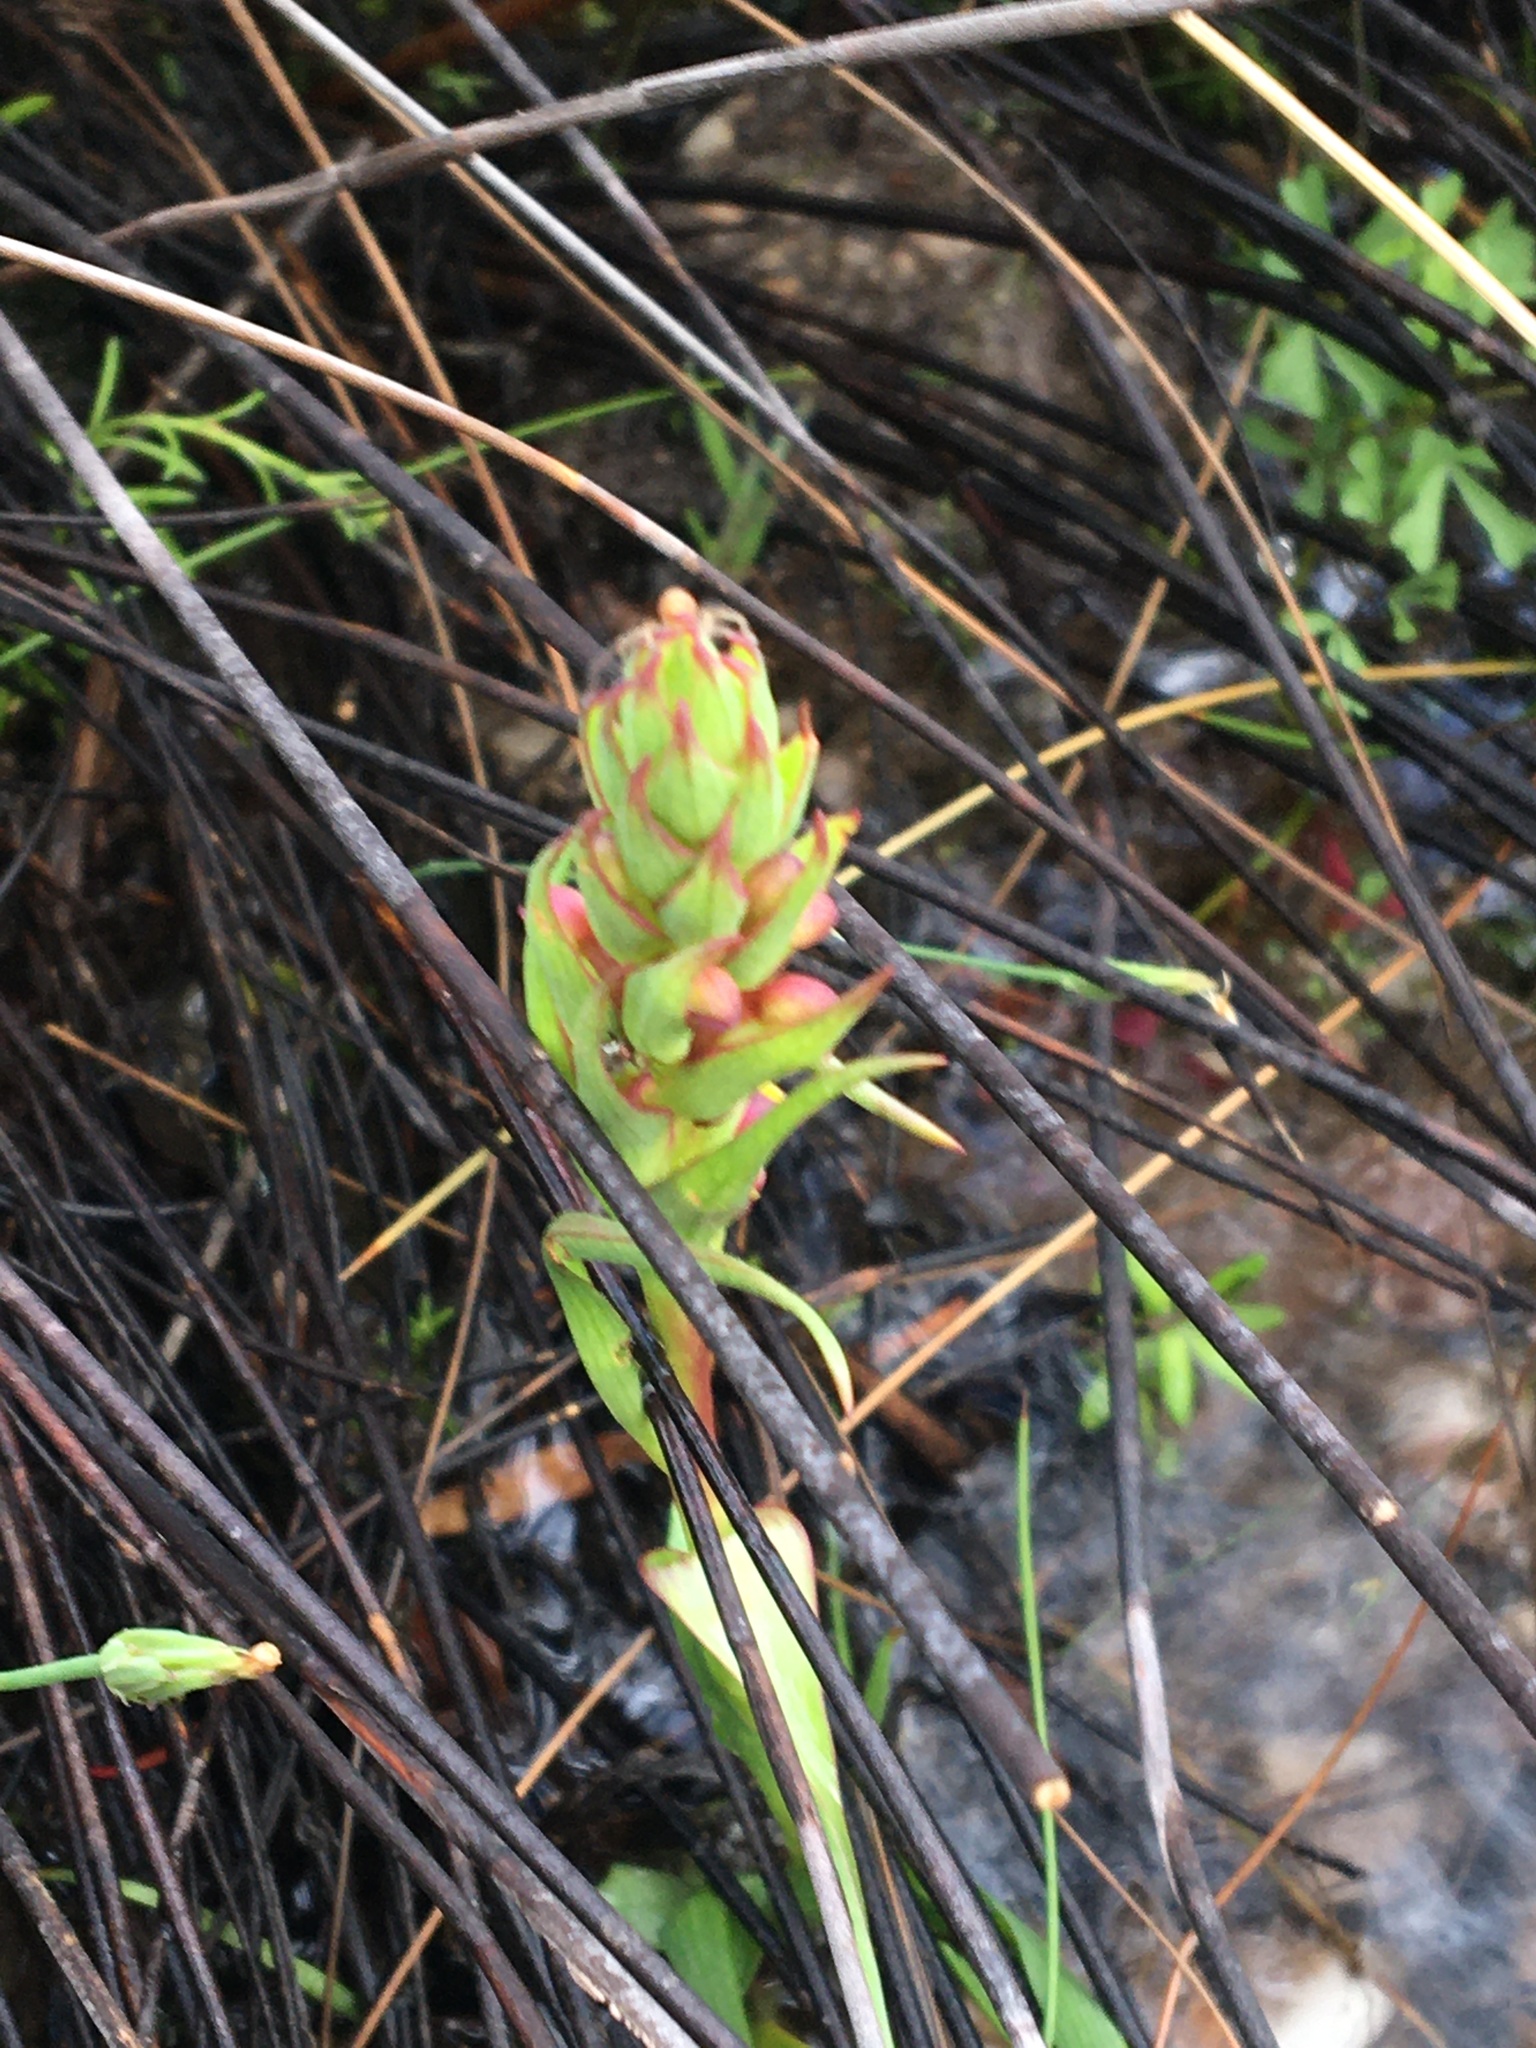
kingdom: Plantae
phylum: Tracheophyta
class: Liliopsida
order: Asparagales
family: Orchidaceae
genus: Disa
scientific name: Disa bracteata
